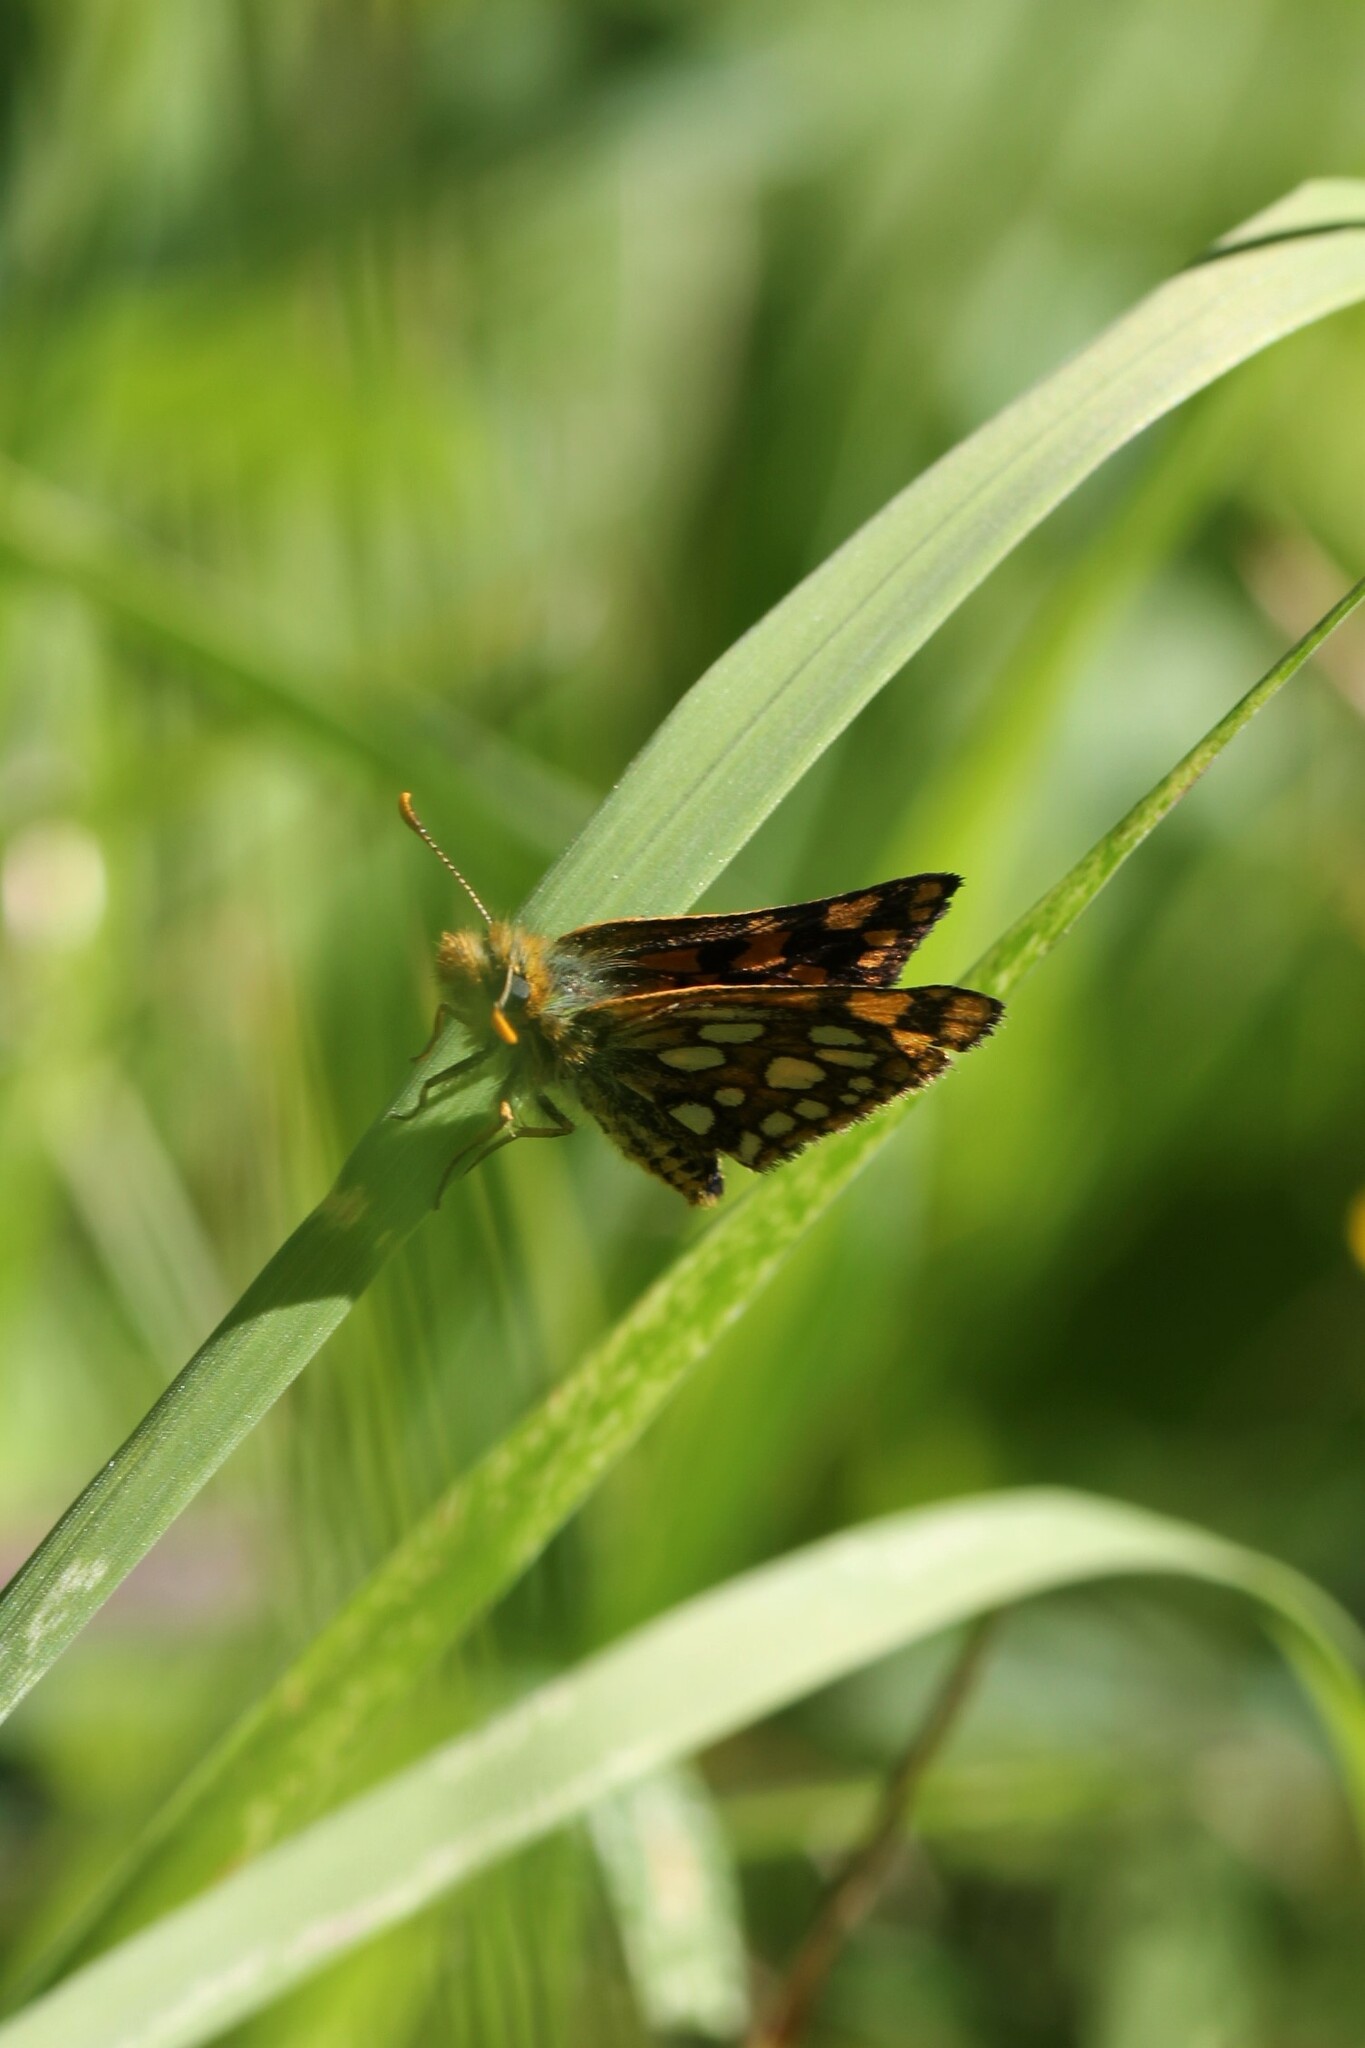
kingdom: Animalia
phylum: Arthropoda
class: Insecta
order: Lepidoptera
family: Hesperiidae
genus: Carterocephalus
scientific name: Carterocephalus skada
